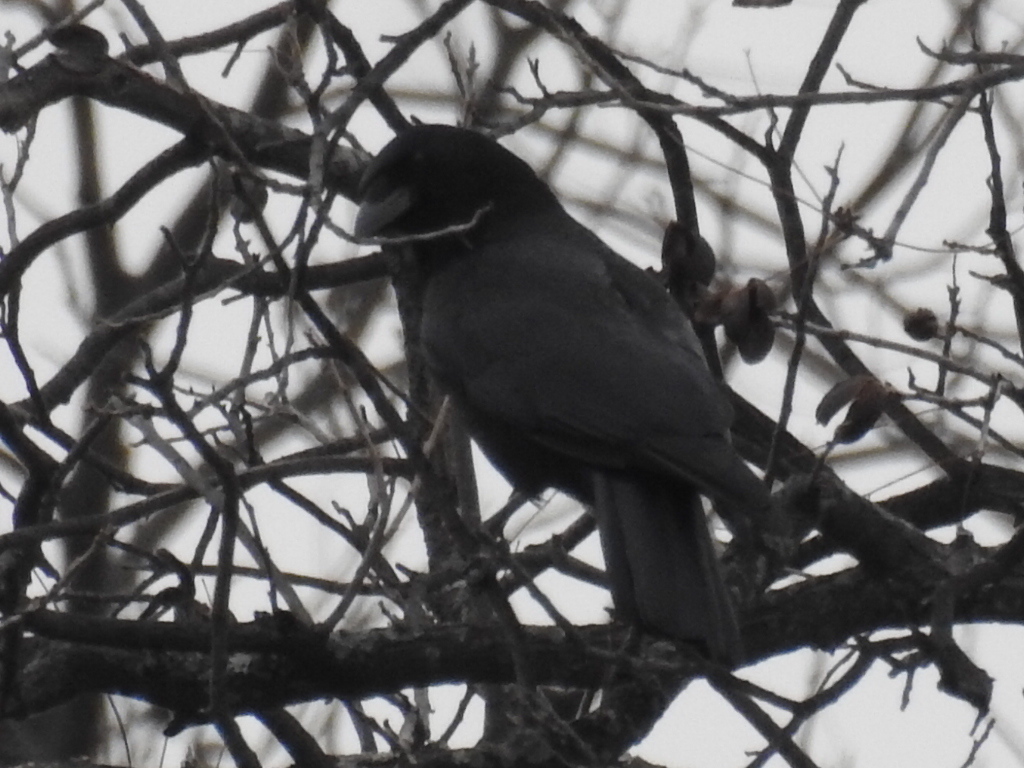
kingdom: Animalia
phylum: Chordata
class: Aves
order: Passeriformes
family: Corvidae
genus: Corvus
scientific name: Corvus brachyrhynchos
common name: American crow
